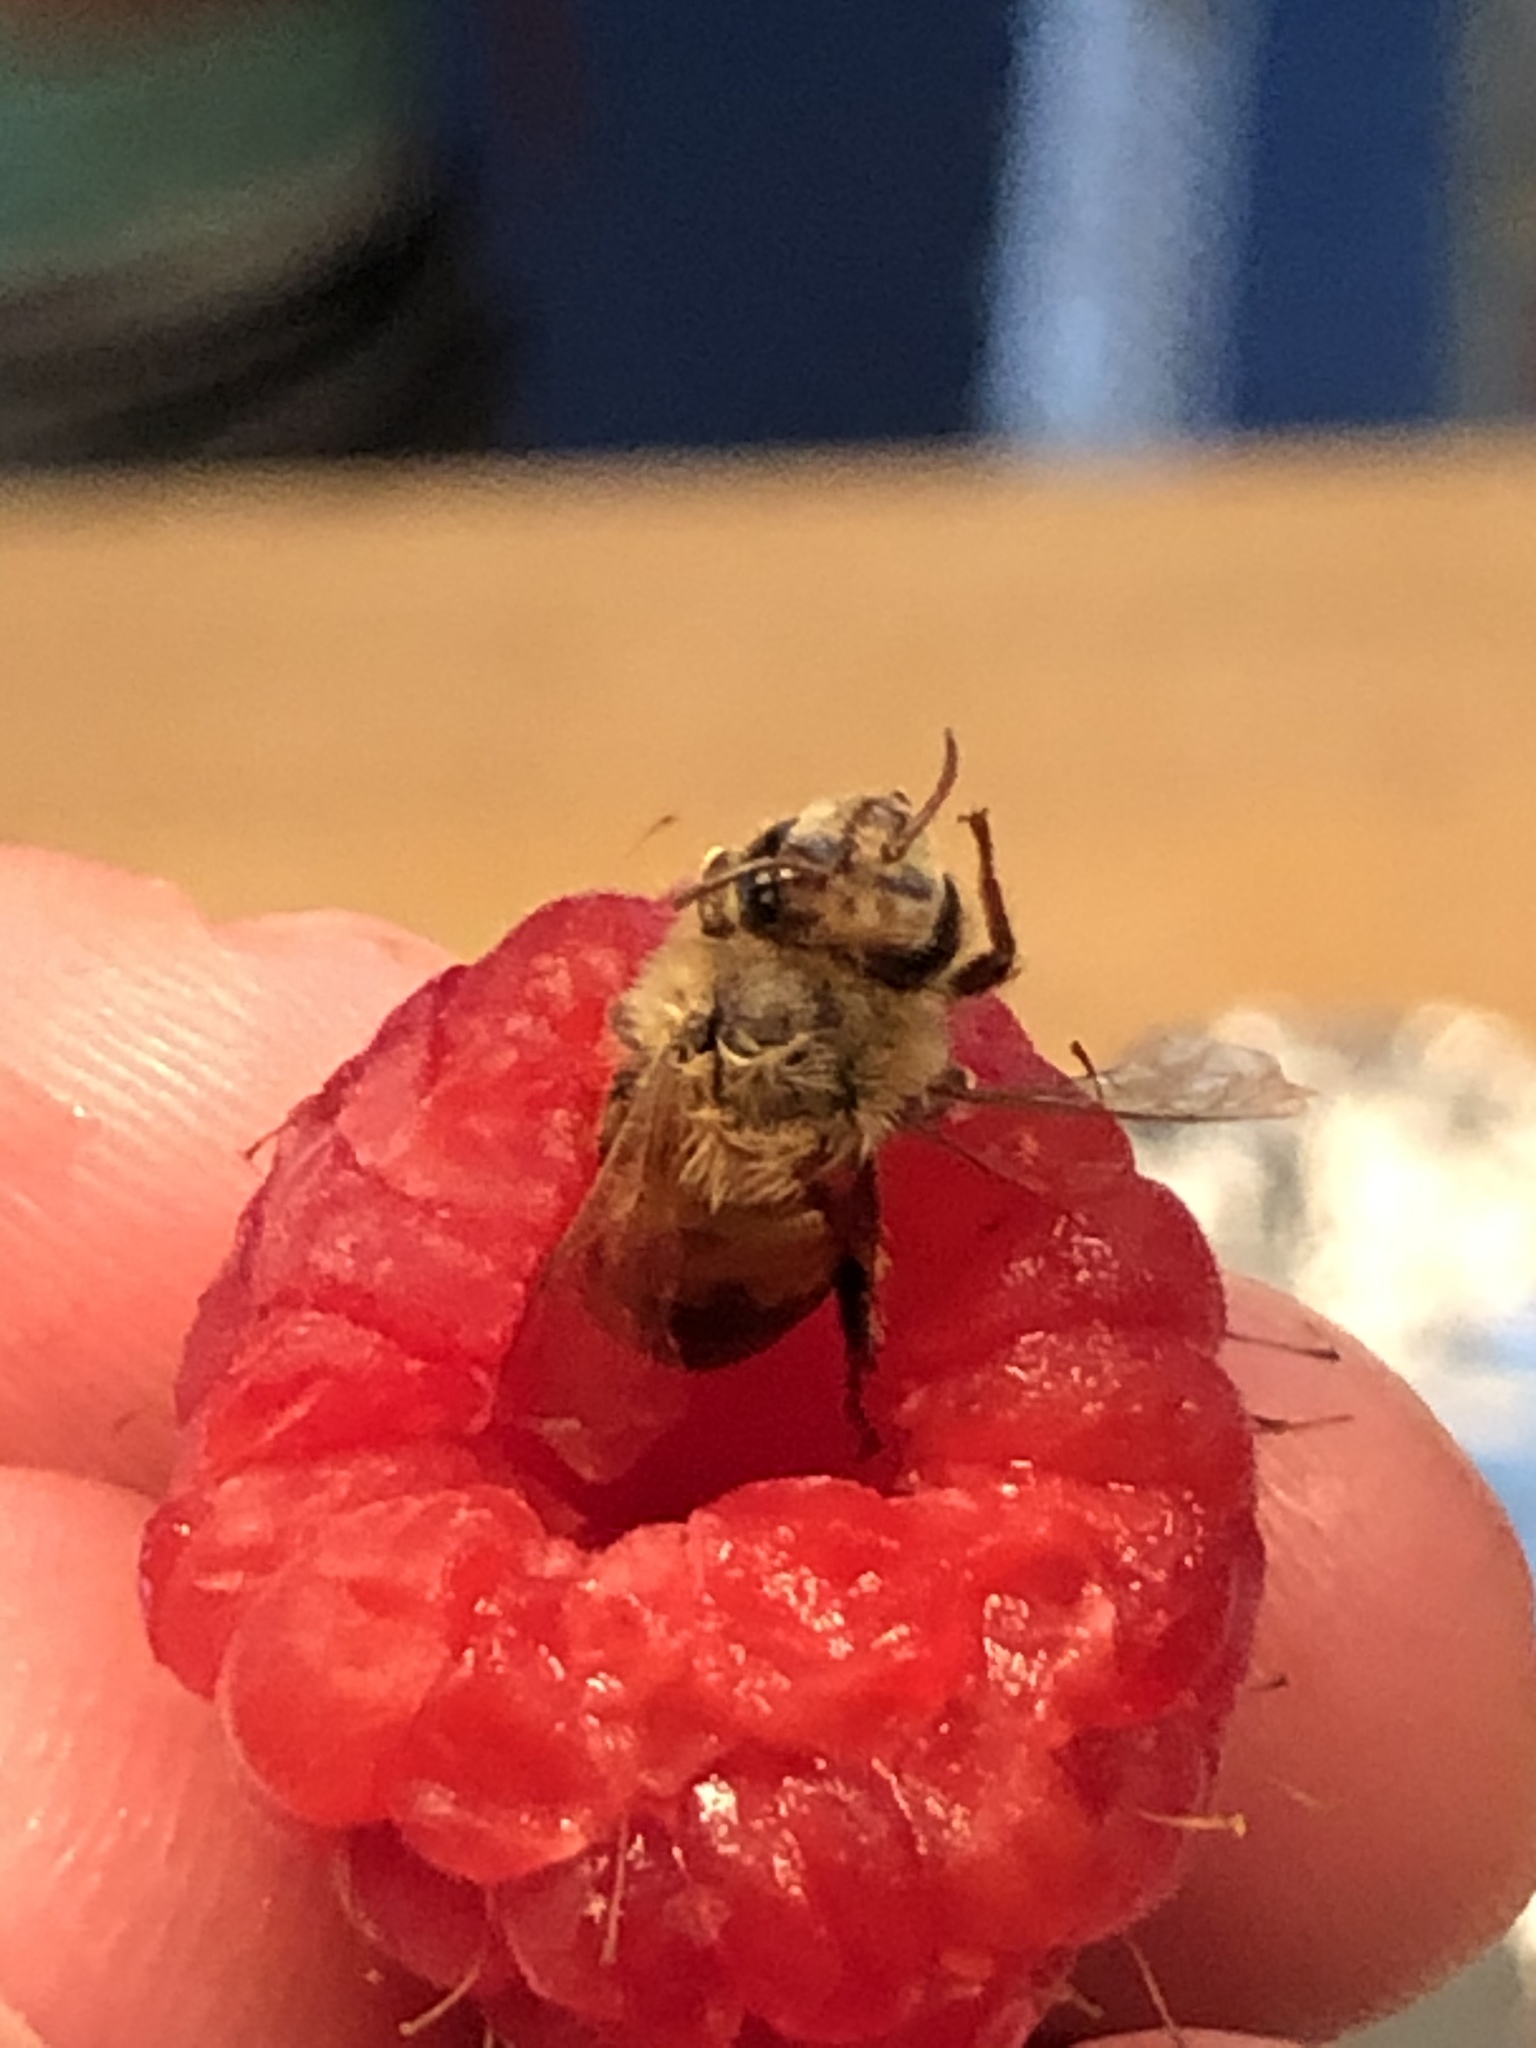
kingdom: Animalia
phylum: Arthropoda
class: Insecta
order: Hymenoptera
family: Apidae
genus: Apis
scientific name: Apis mellifera
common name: Honey bee
